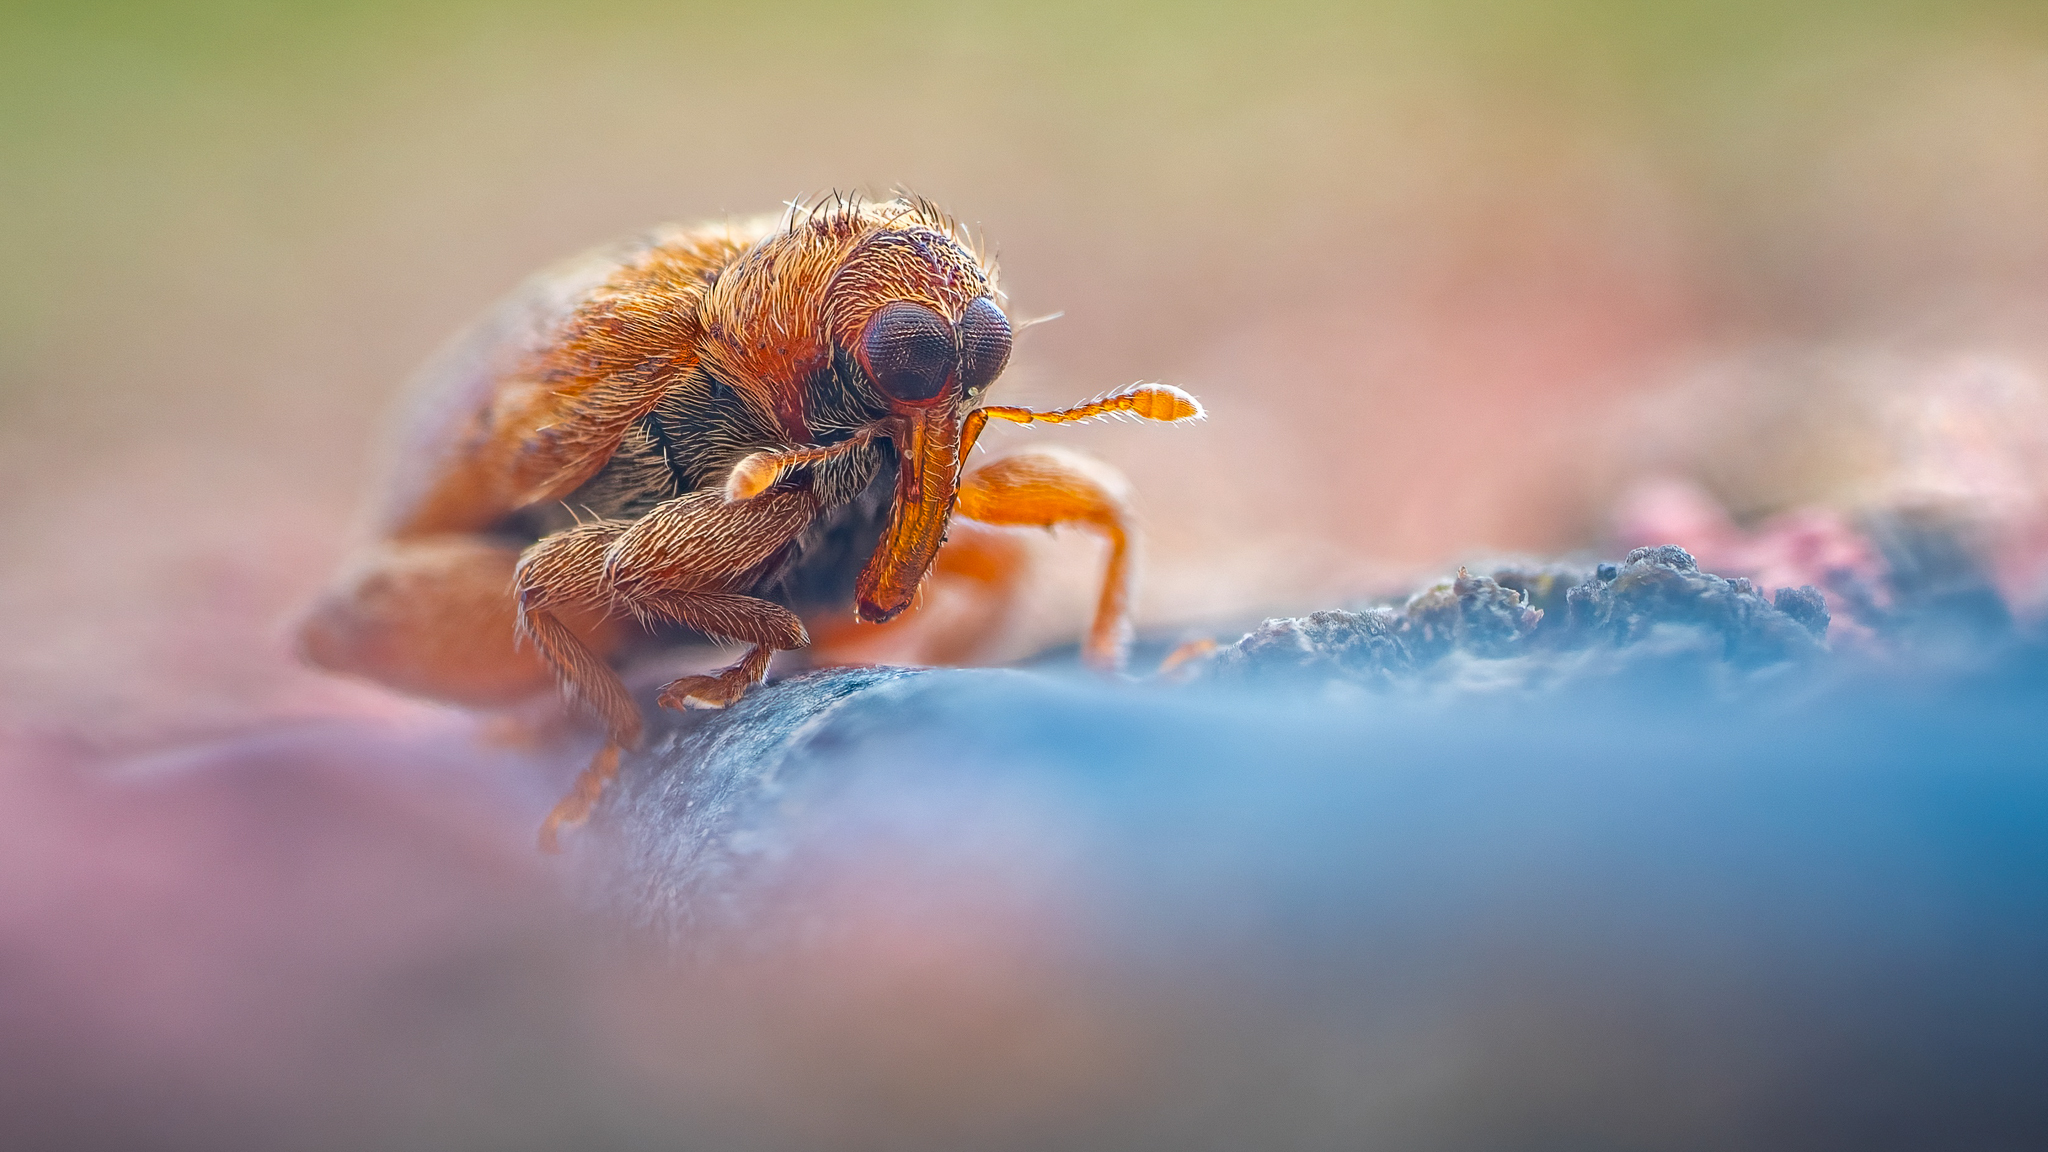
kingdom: Animalia
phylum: Arthropoda
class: Insecta
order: Coleoptera
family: Curculionidae
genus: Orchestes
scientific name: Orchestes quercus
